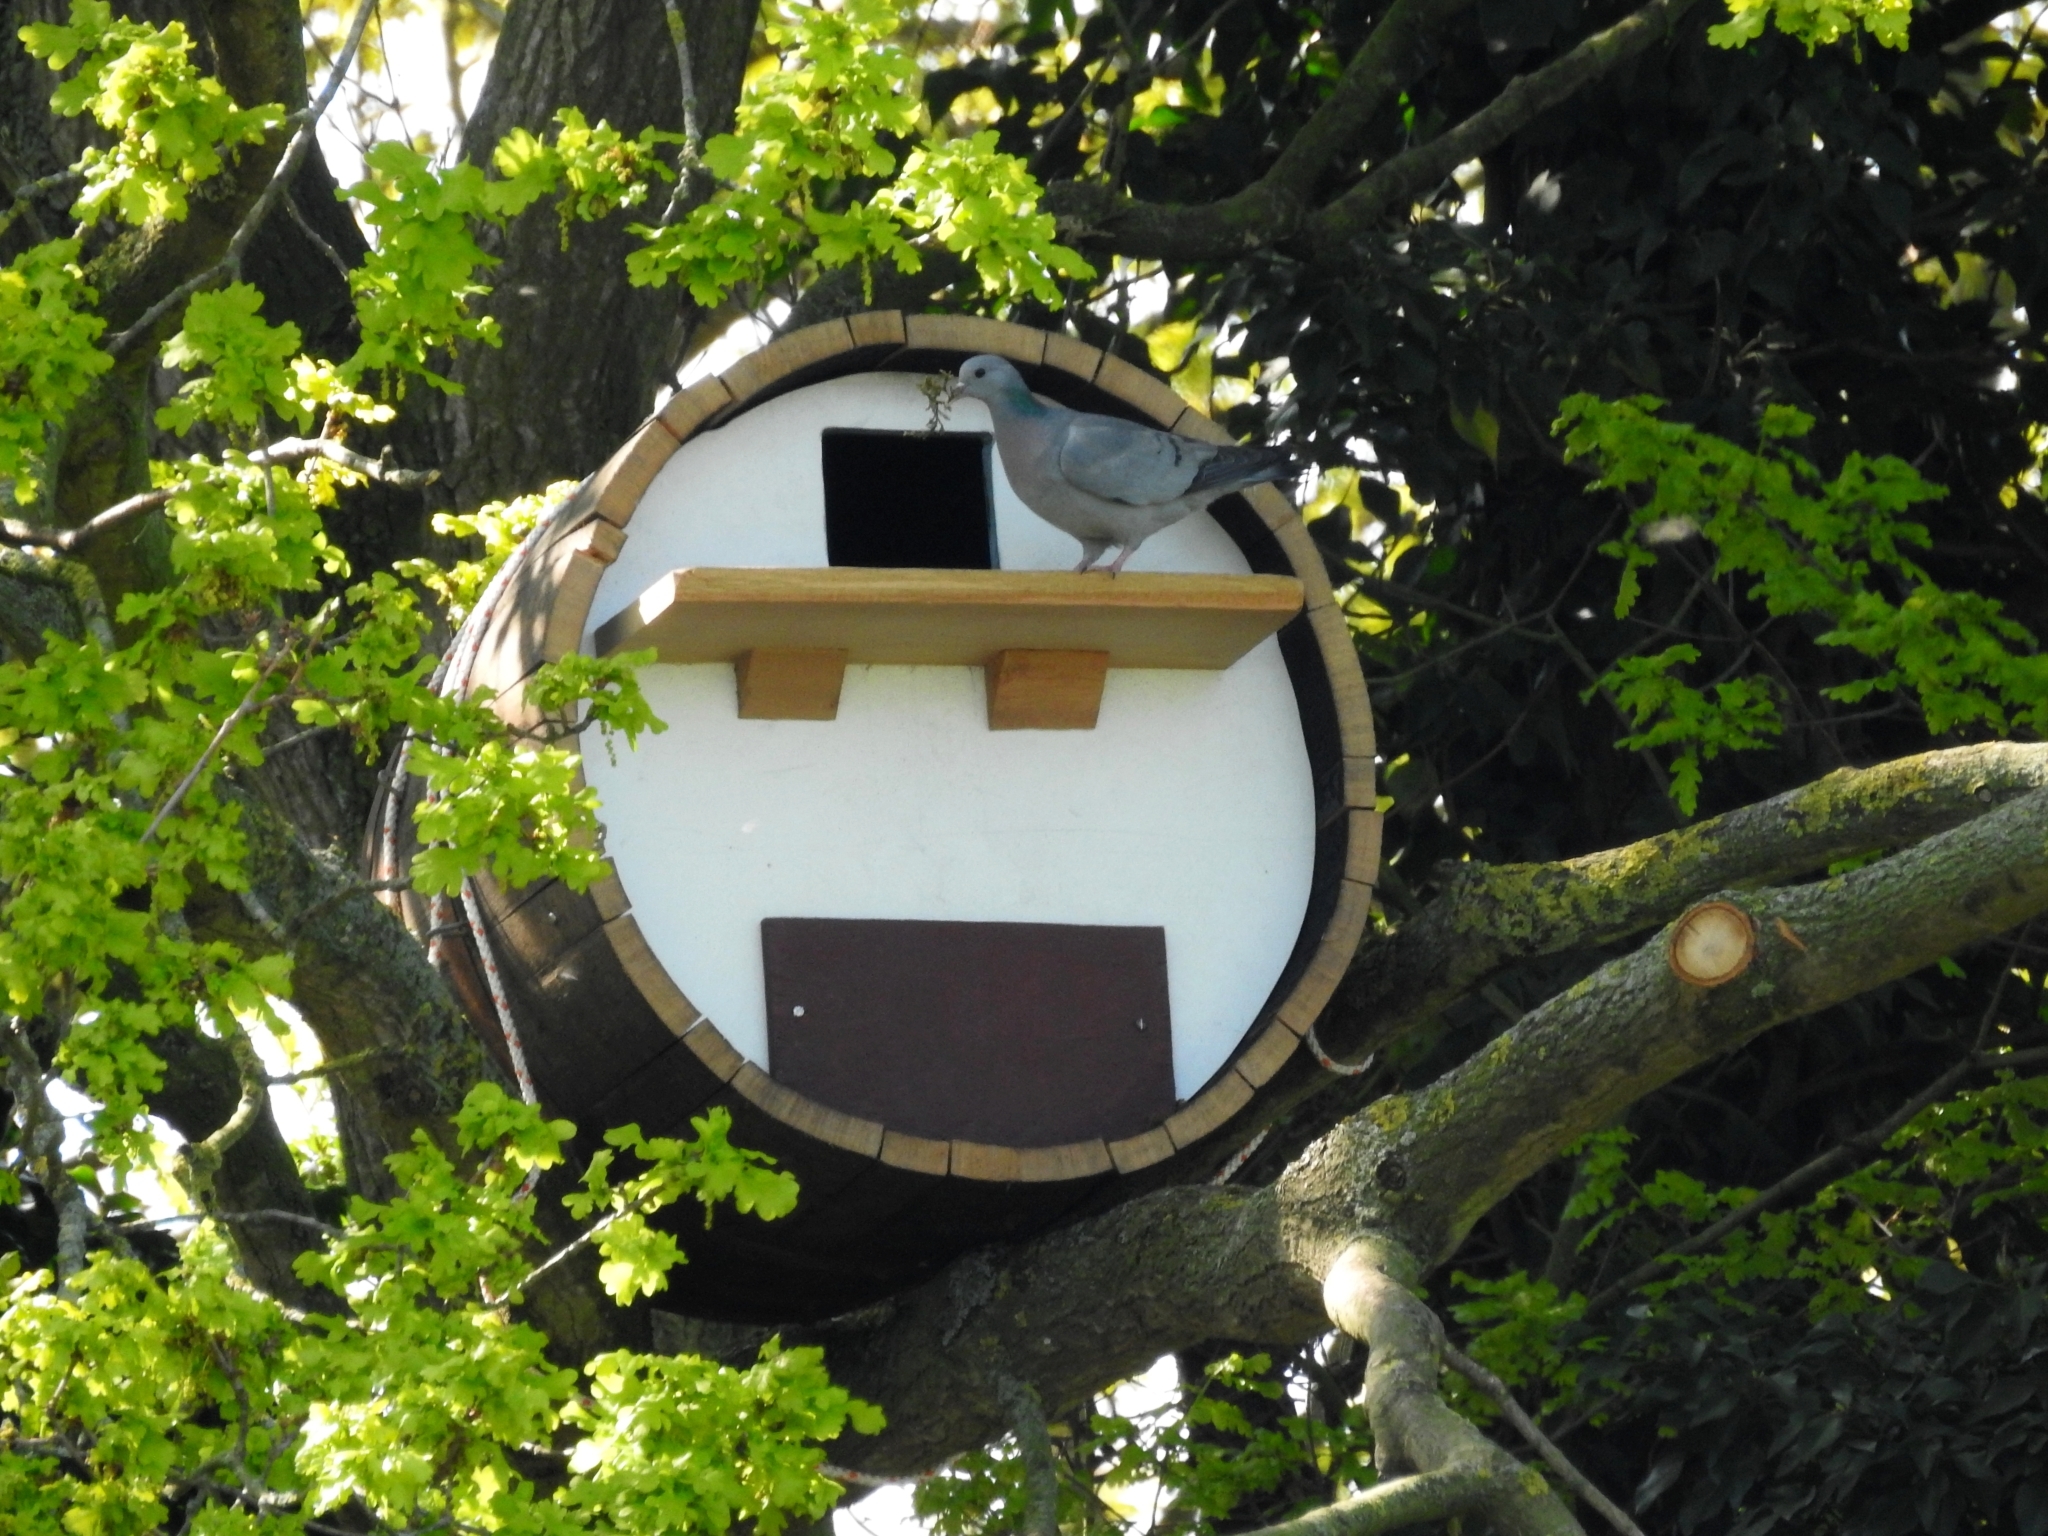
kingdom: Animalia
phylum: Chordata
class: Aves
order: Columbiformes
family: Columbidae
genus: Columba
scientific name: Columba oenas
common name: Stock dove
